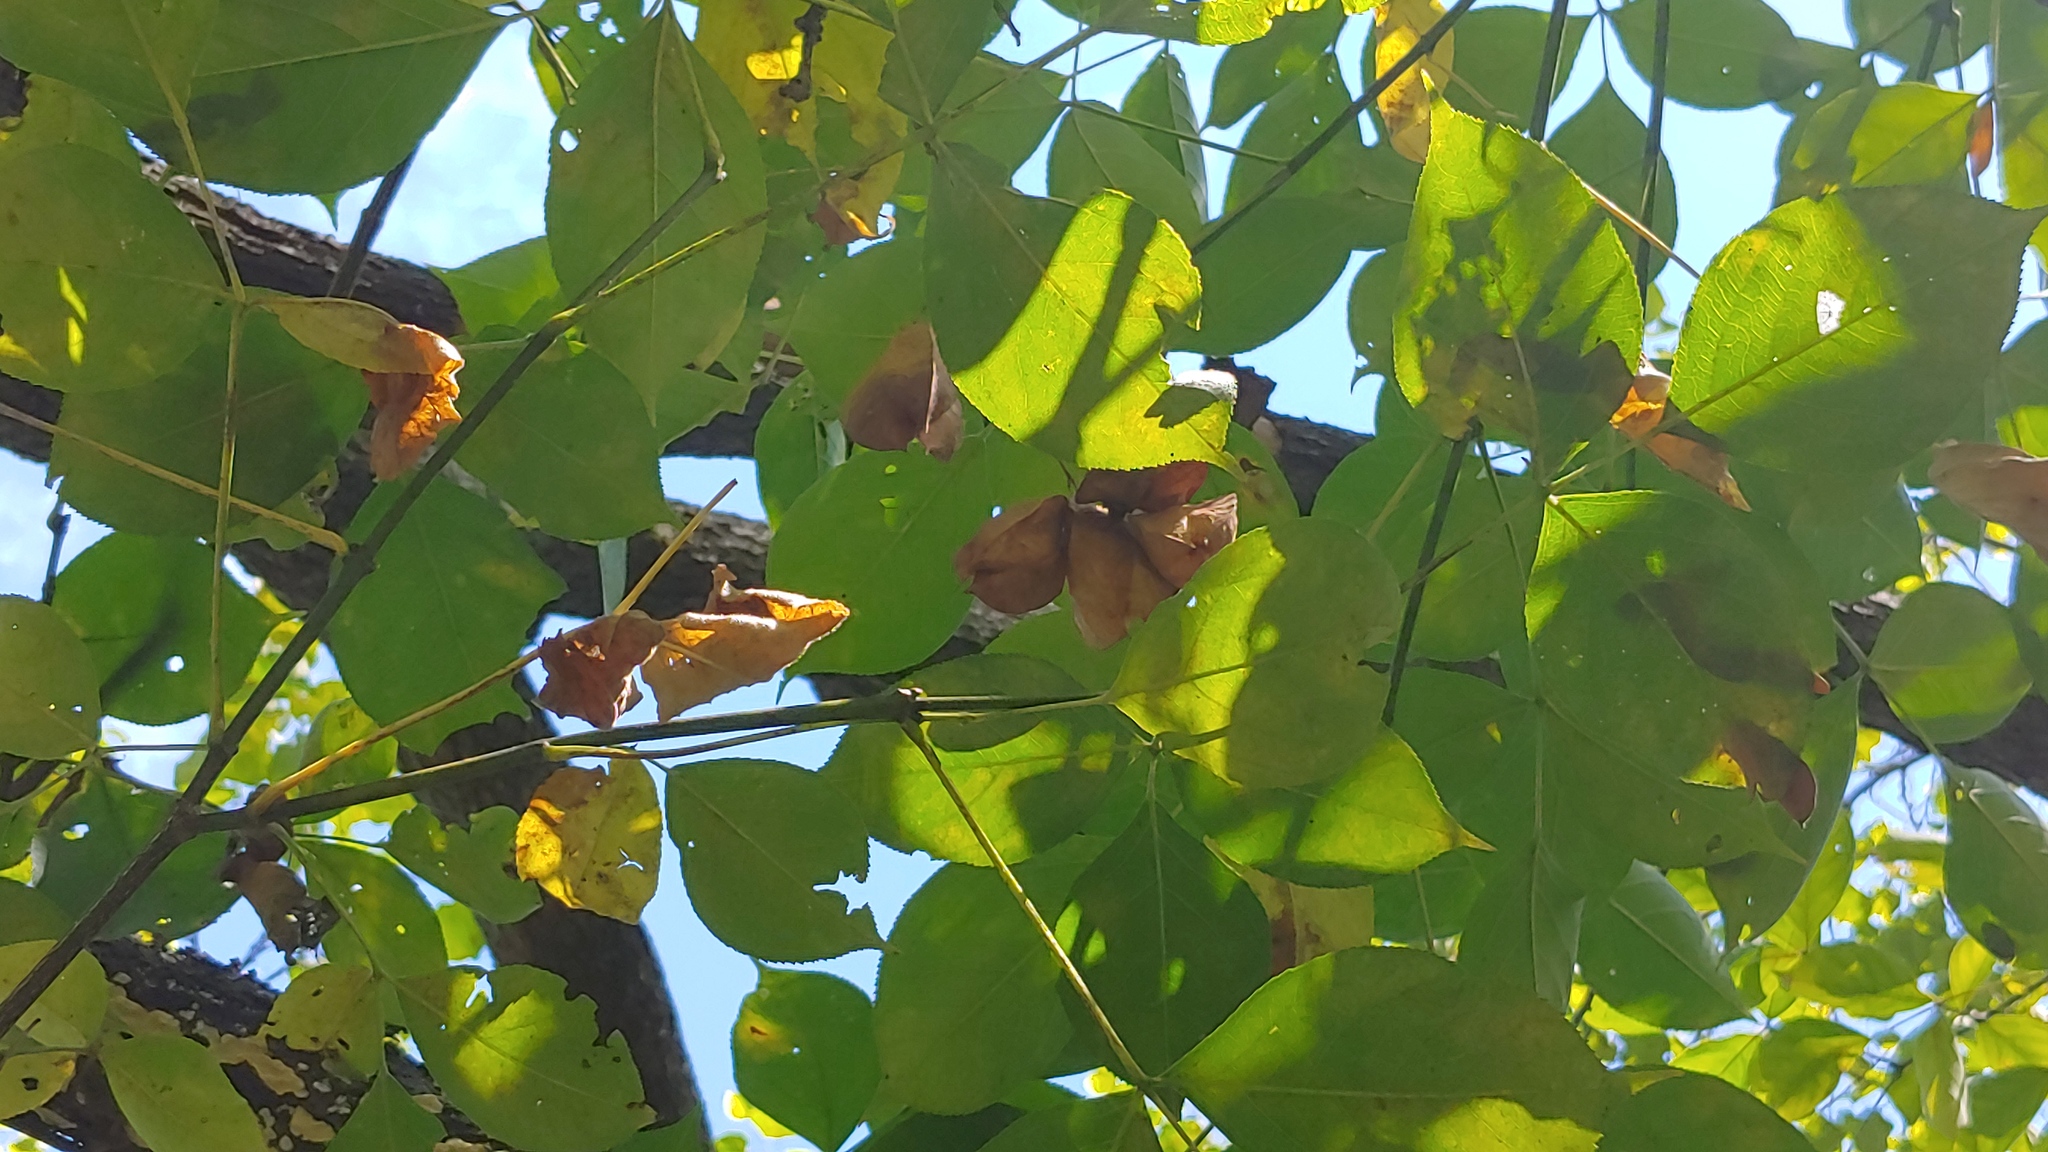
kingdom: Plantae
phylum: Tracheophyta
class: Magnoliopsida
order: Crossosomatales
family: Staphyleaceae
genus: Staphylea
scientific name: Staphylea trifolia
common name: American bladdernut
